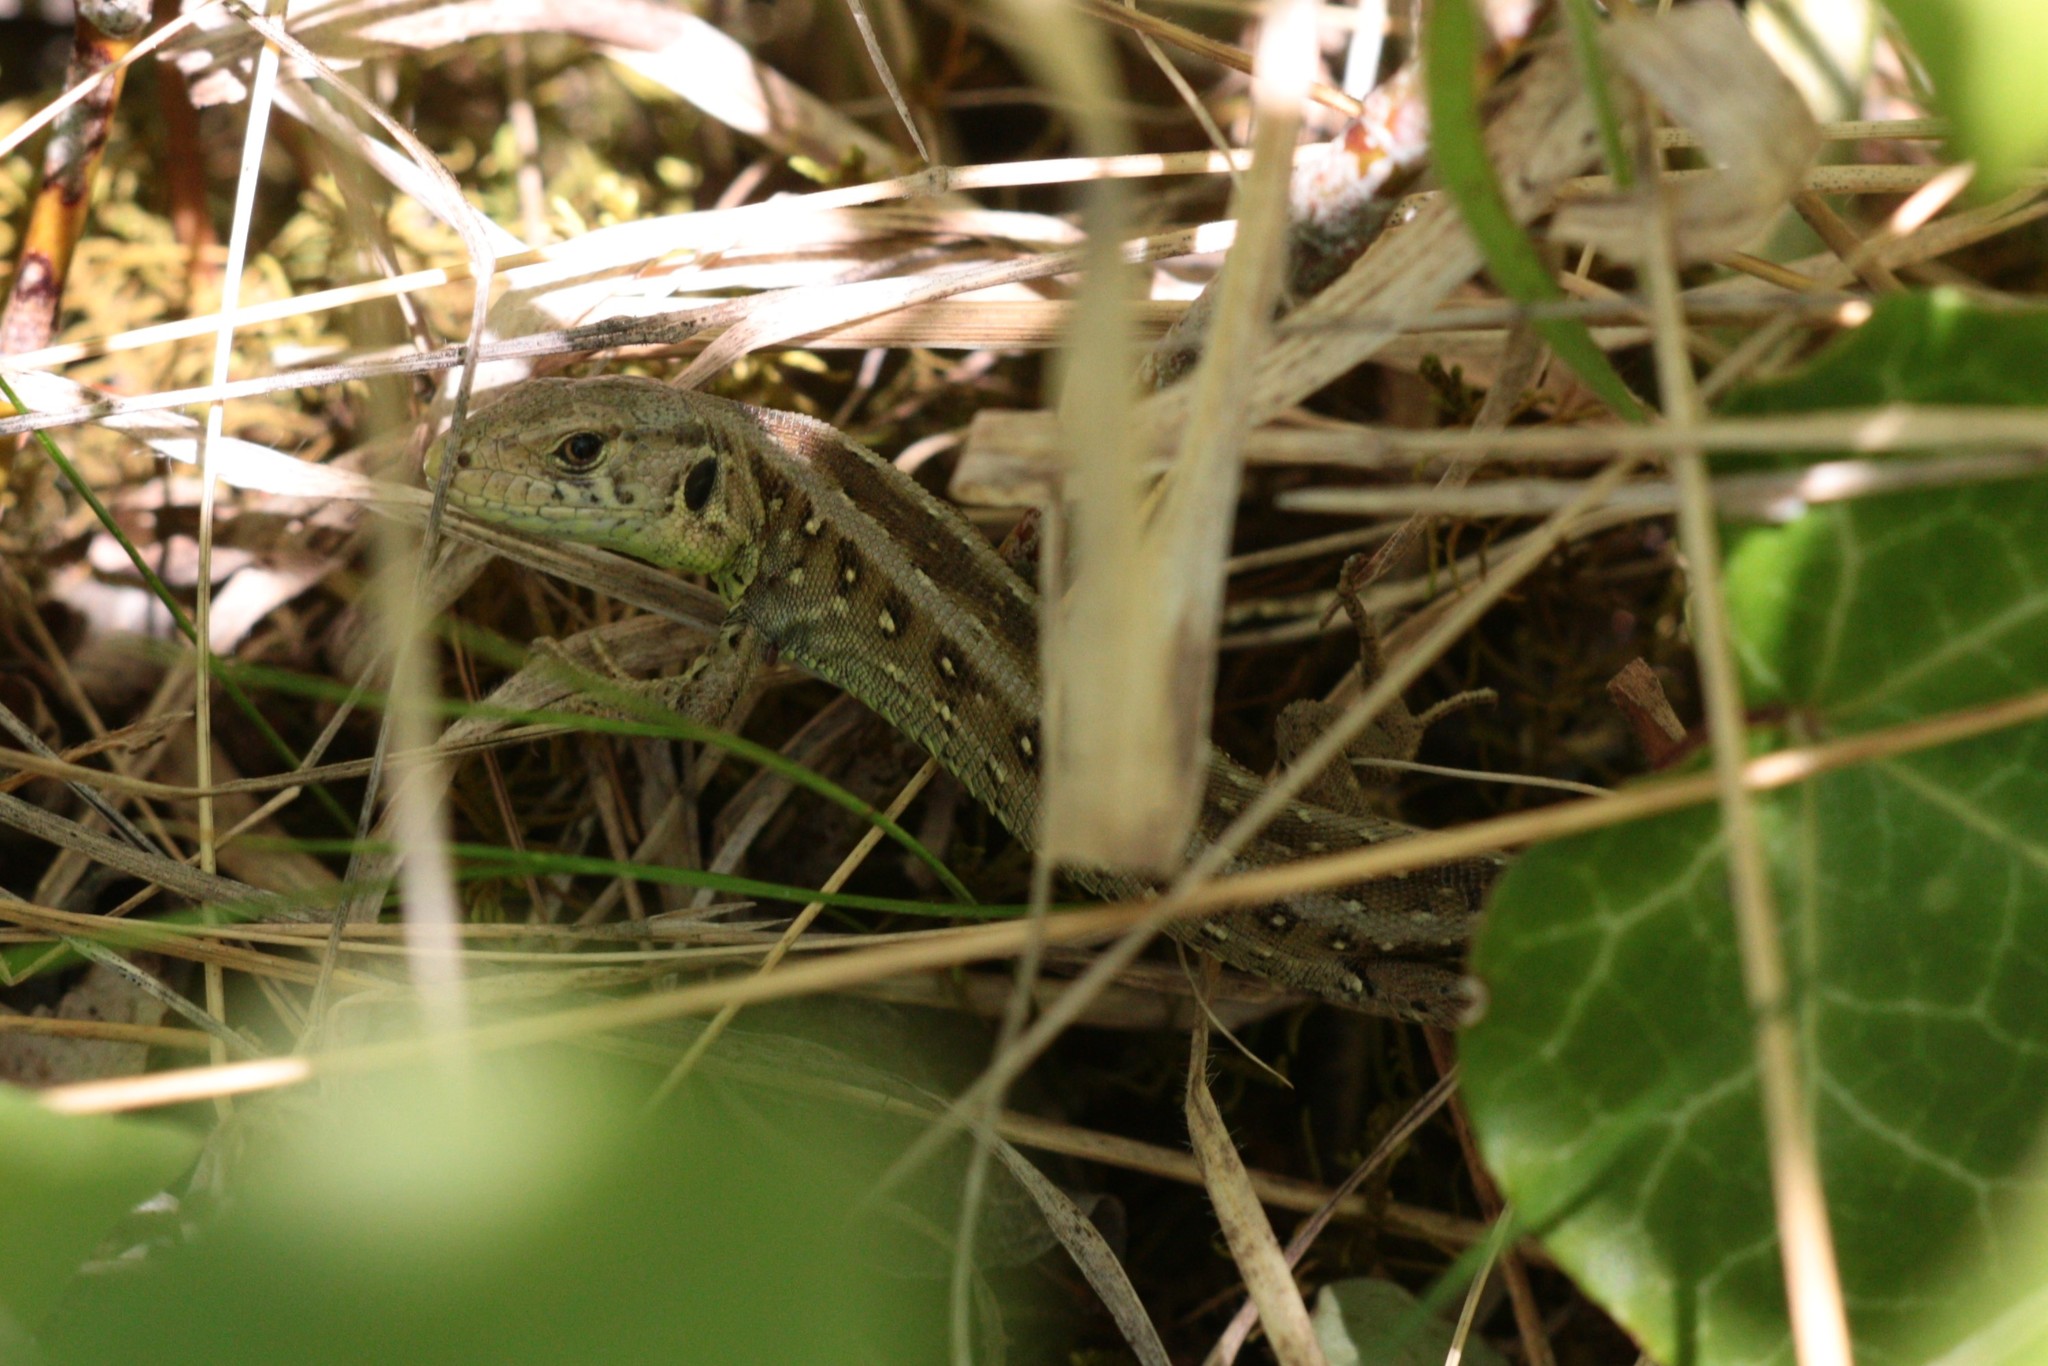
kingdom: Animalia
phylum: Chordata
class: Squamata
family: Lacertidae
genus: Lacerta
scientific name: Lacerta agilis
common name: Sand lizard
